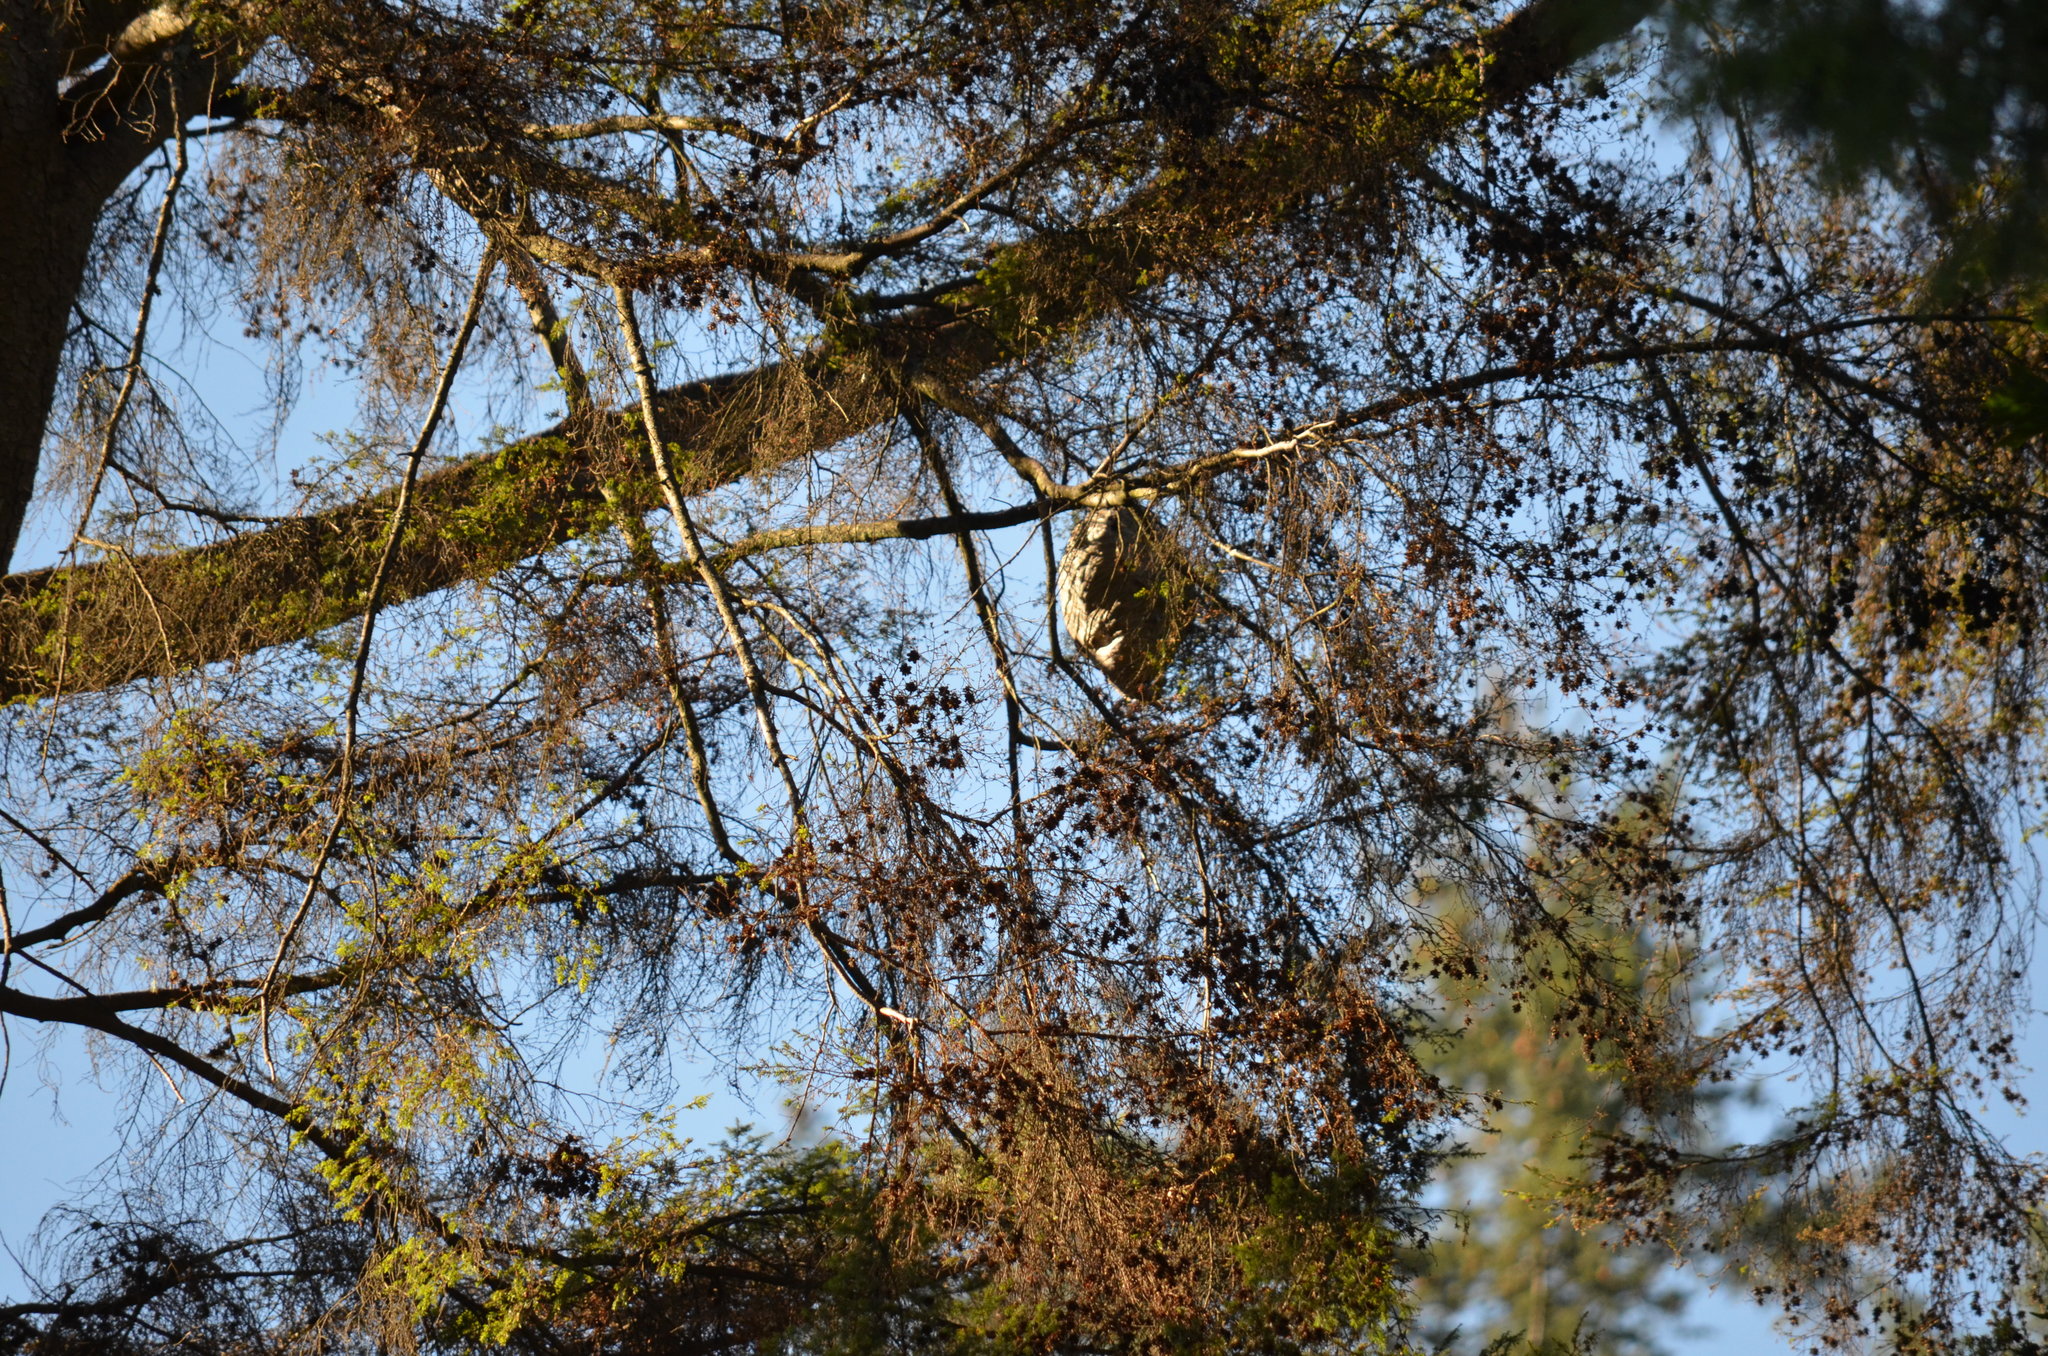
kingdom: Animalia
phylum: Arthropoda
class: Insecta
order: Hymenoptera
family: Vespidae
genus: Dolichovespula
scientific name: Dolichovespula
